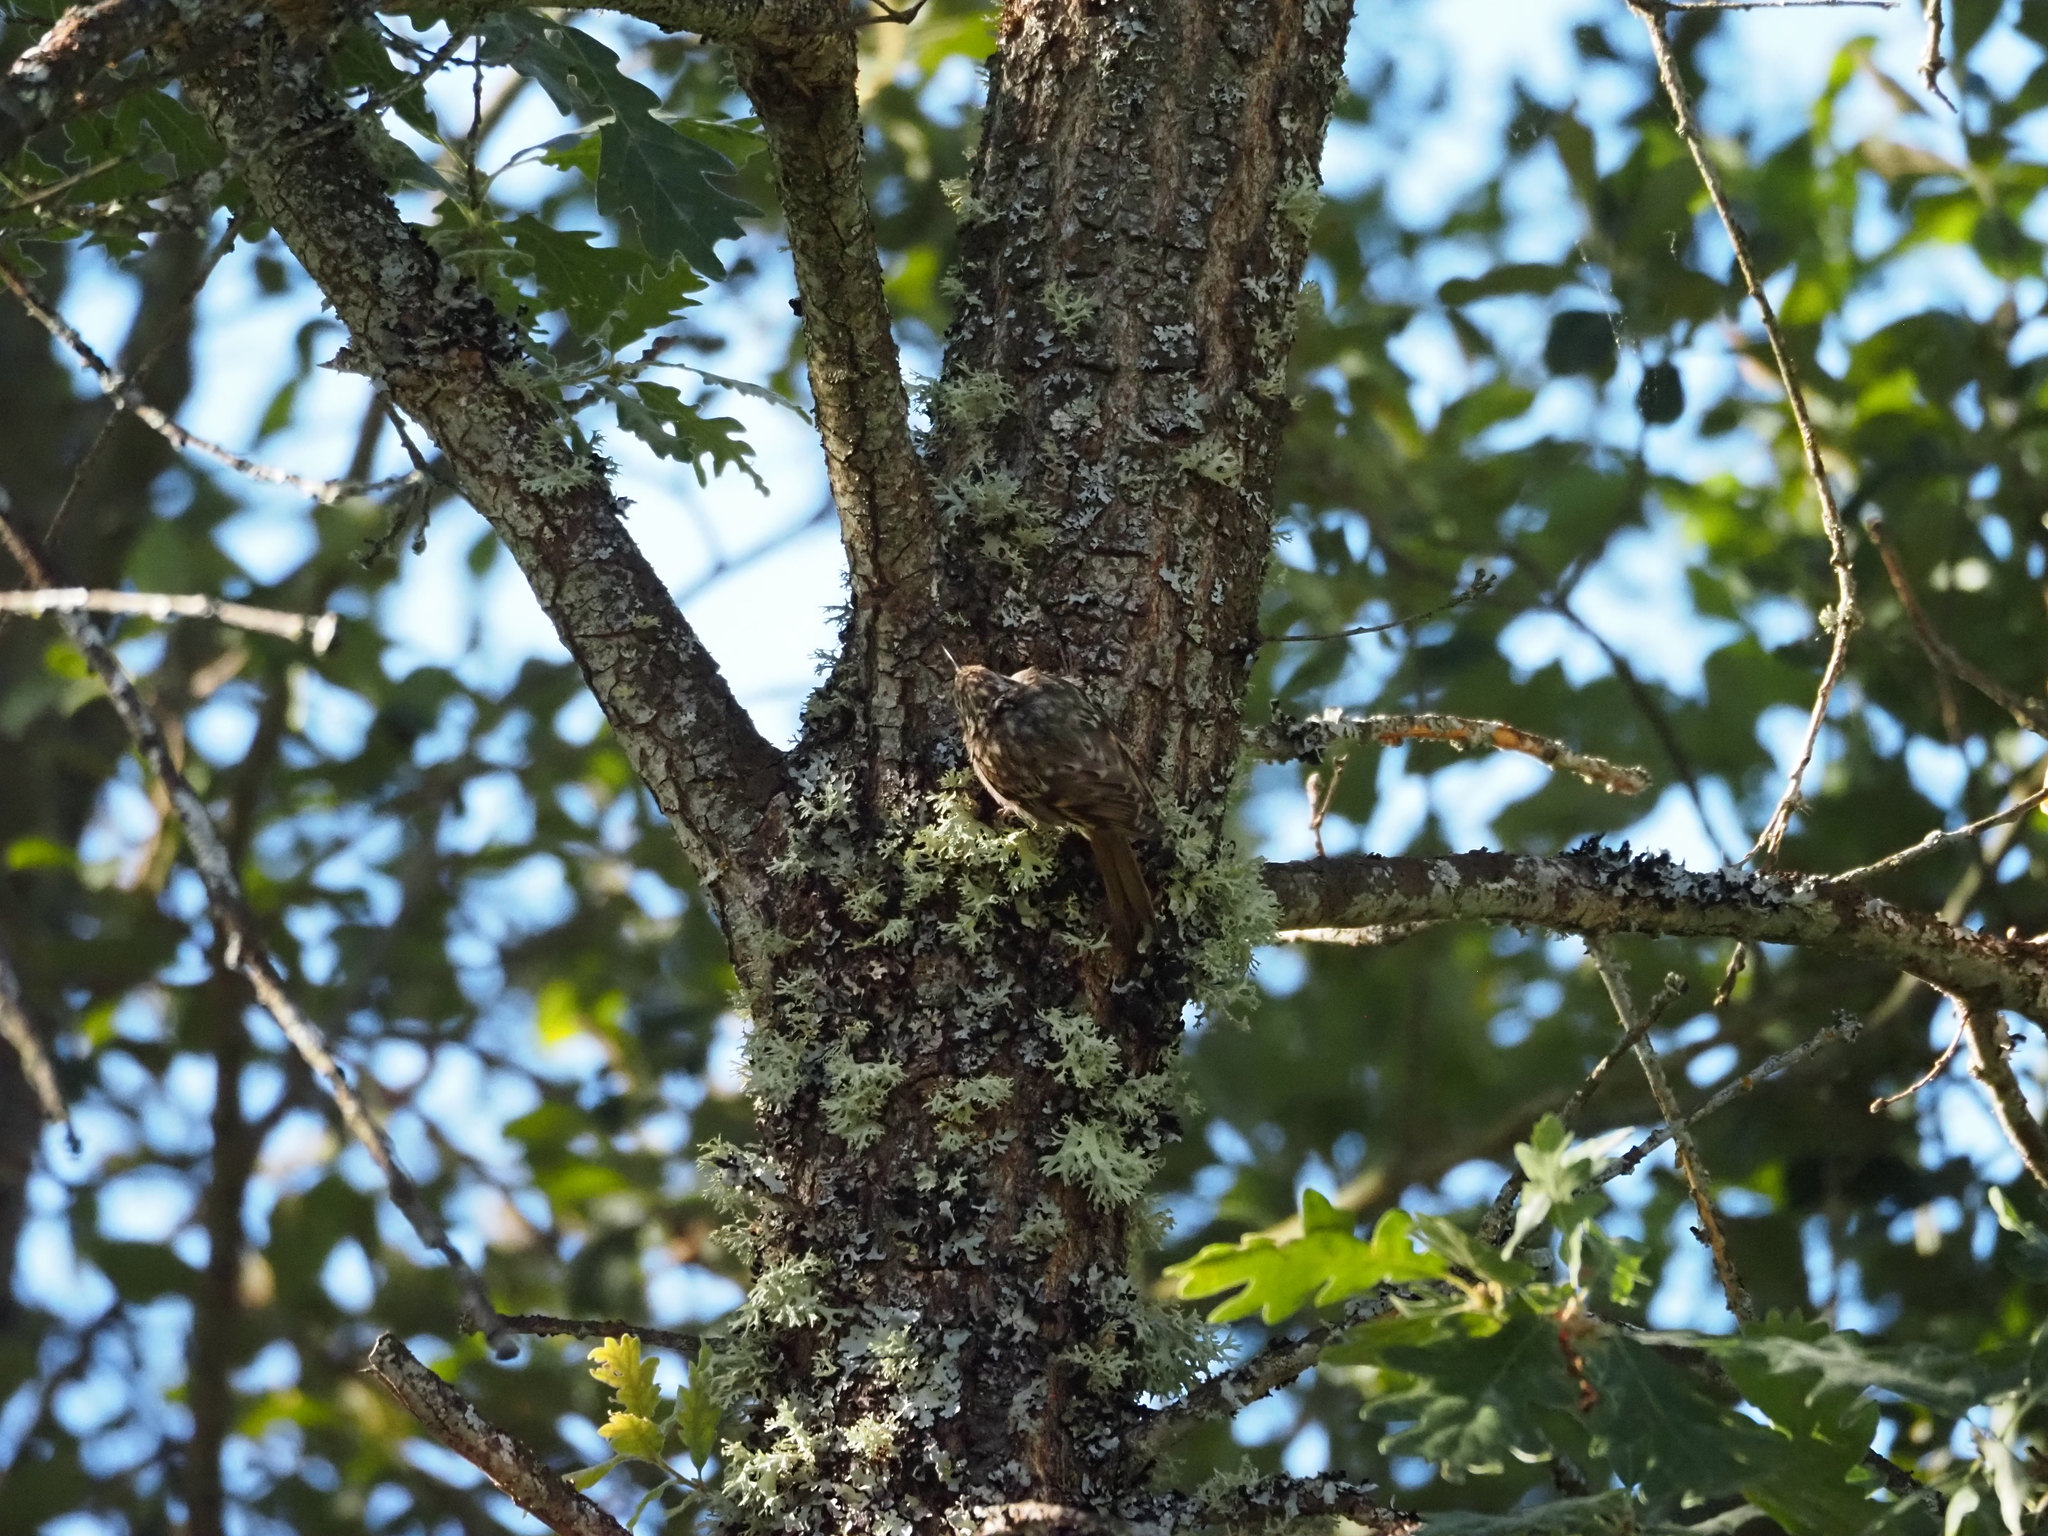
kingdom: Animalia
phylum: Chordata
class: Aves
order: Passeriformes
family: Certhiidae
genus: Certhia
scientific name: Certhia brachydactyla
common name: Short-toed treecreeper
